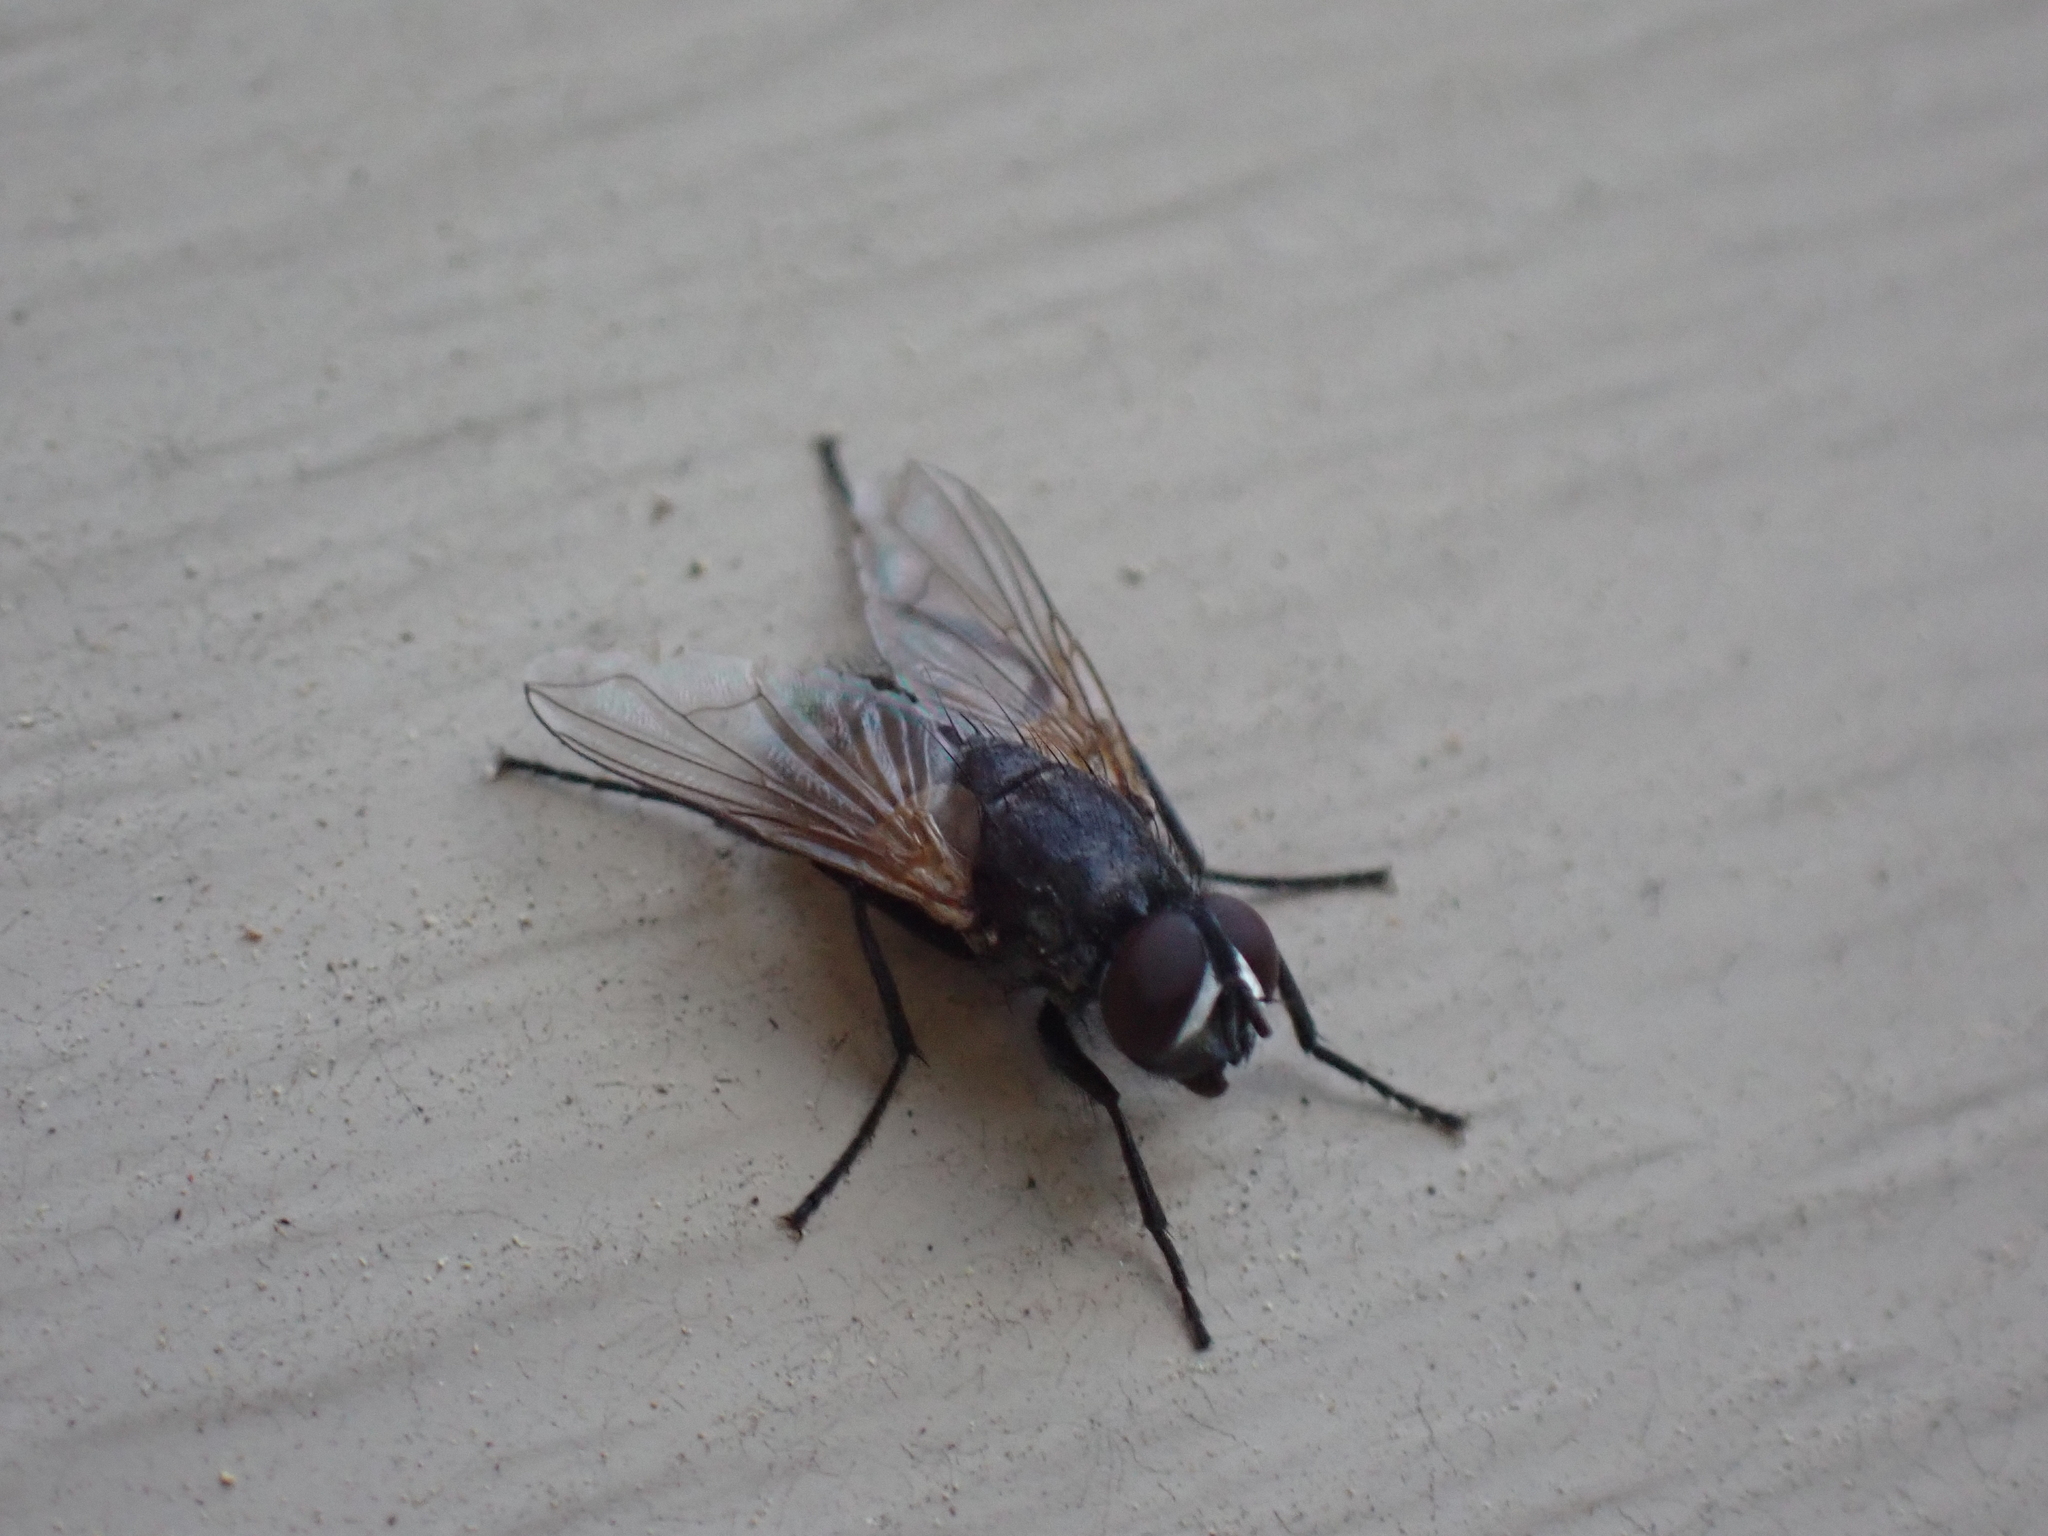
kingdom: Animalia
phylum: Arthropoda
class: Insecta
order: Diptera
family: Muscidae
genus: Musca
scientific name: Musca domestica
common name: House fly
